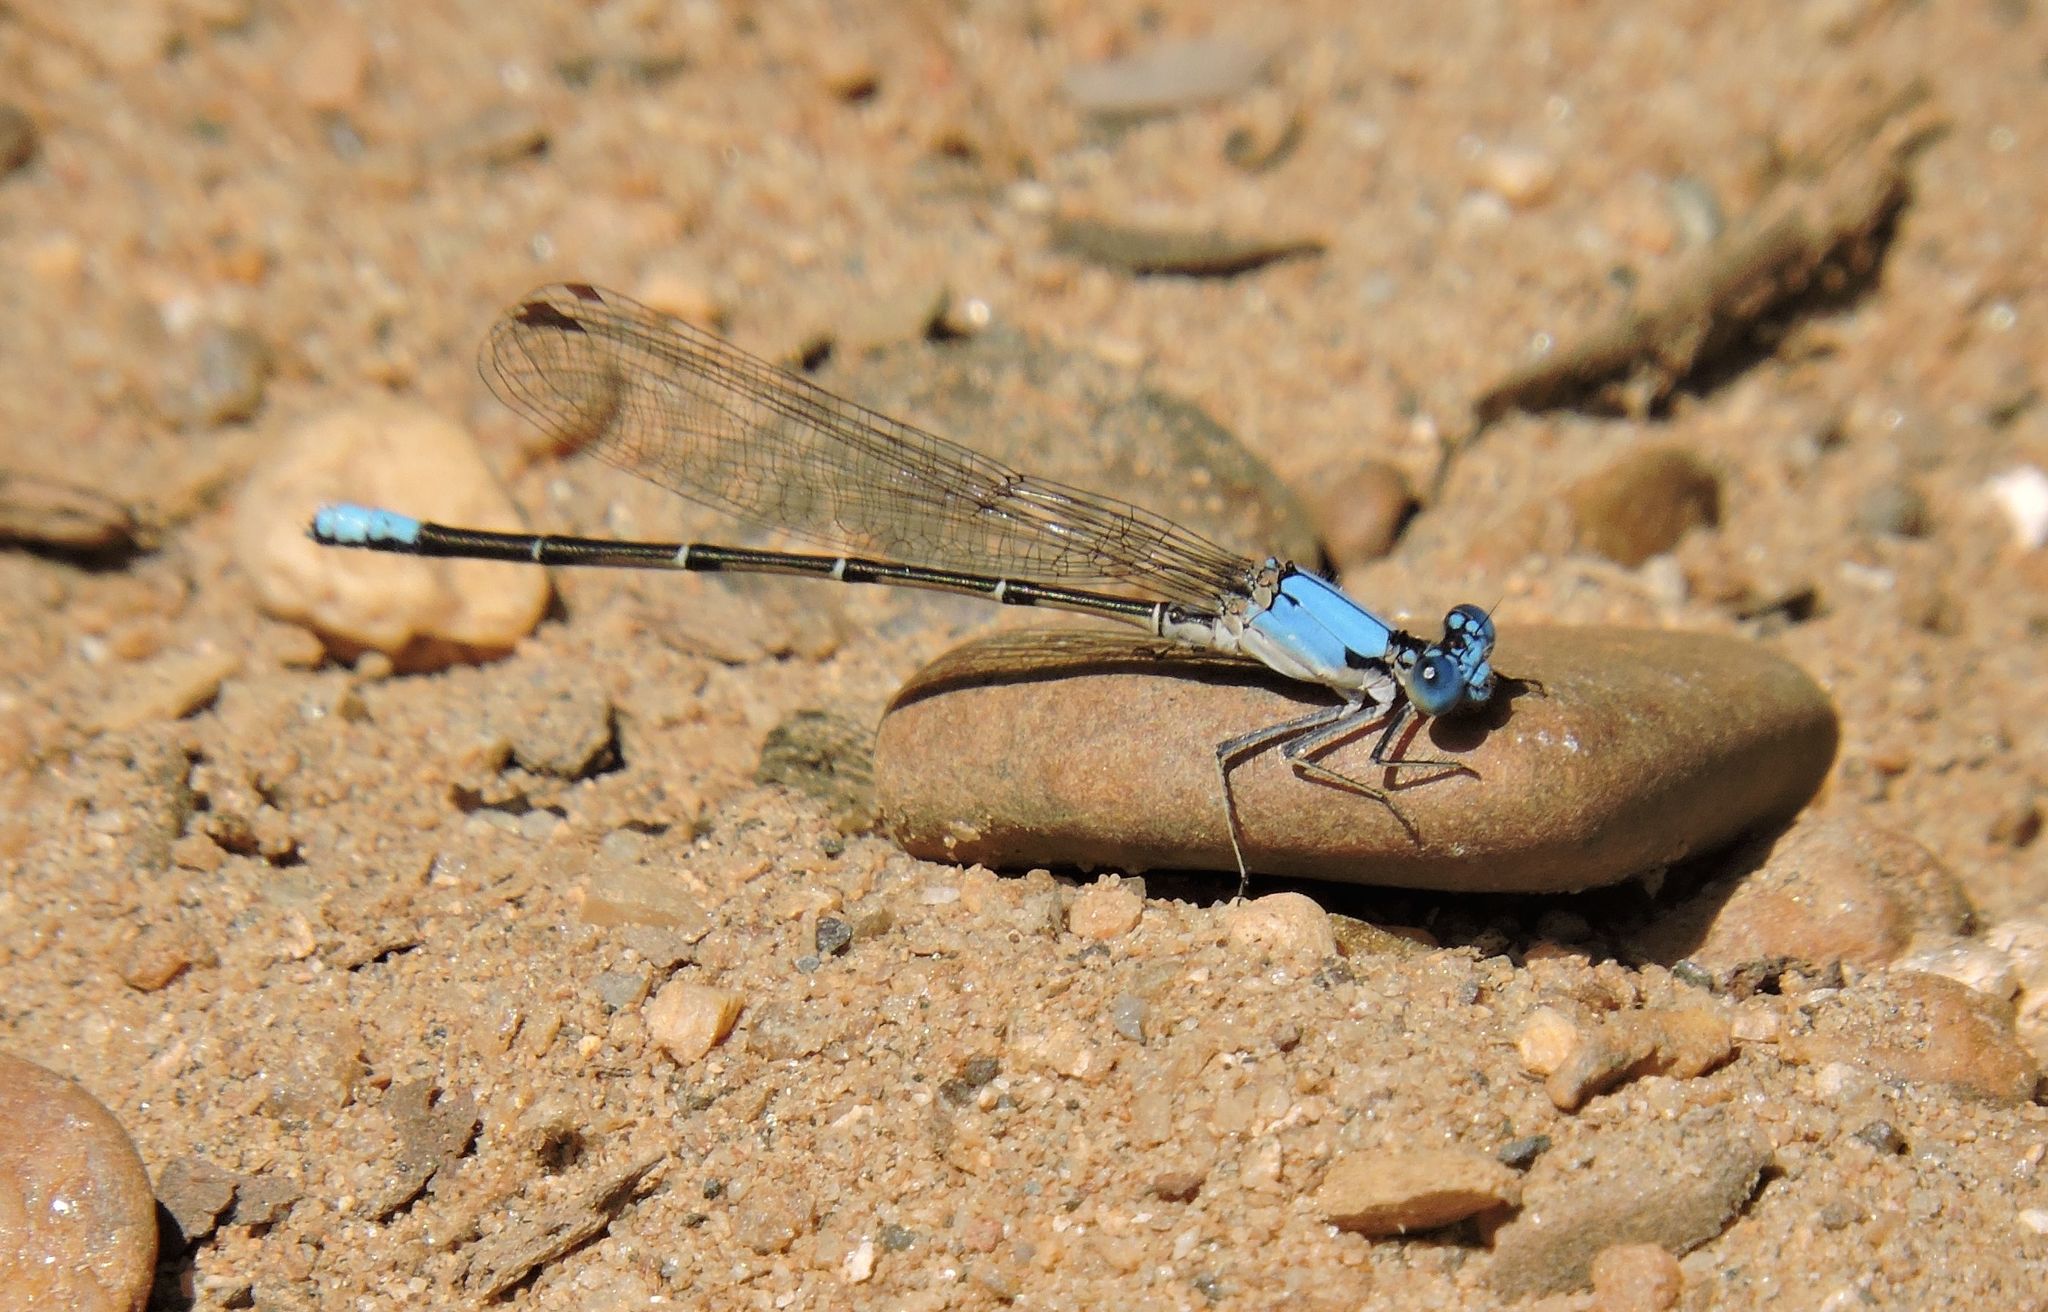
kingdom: Animalia
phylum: Arthropoda
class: Insecta
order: Odonata
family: Coenagrionidae
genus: Argia
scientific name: Argia apicalis
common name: Blue-fronted dancer
